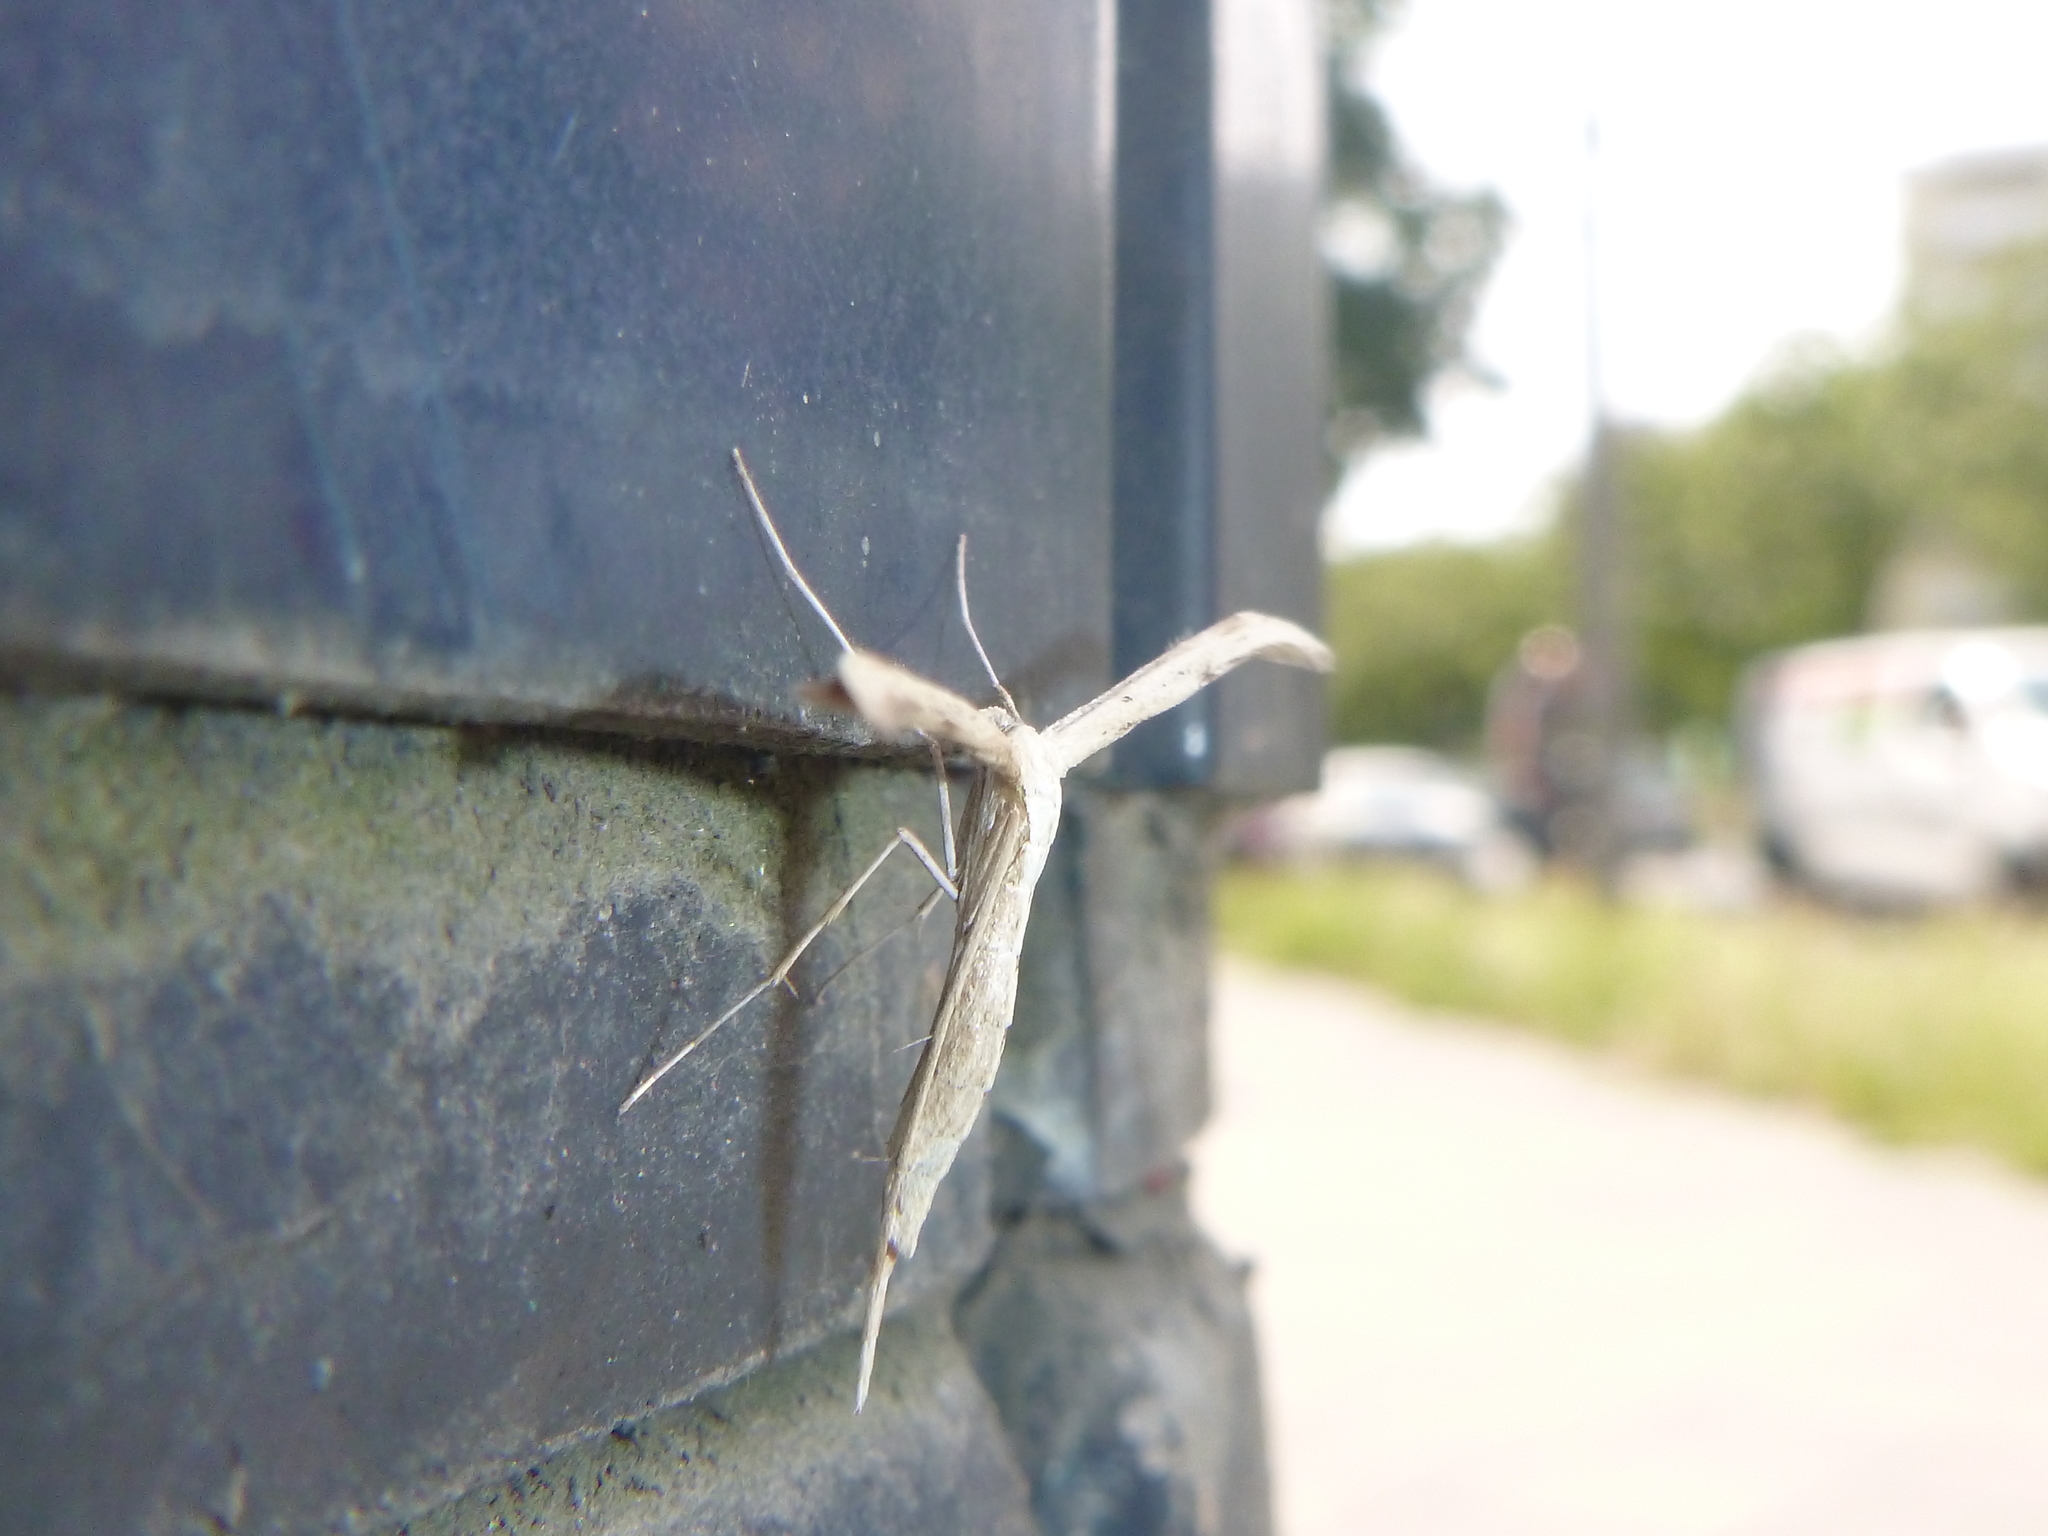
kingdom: Animalia
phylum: Arthropoda
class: Insecta
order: Lepidoptera
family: Pterophoridae
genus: Emmelina
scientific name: Emmelina monodactyla
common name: Common plume
